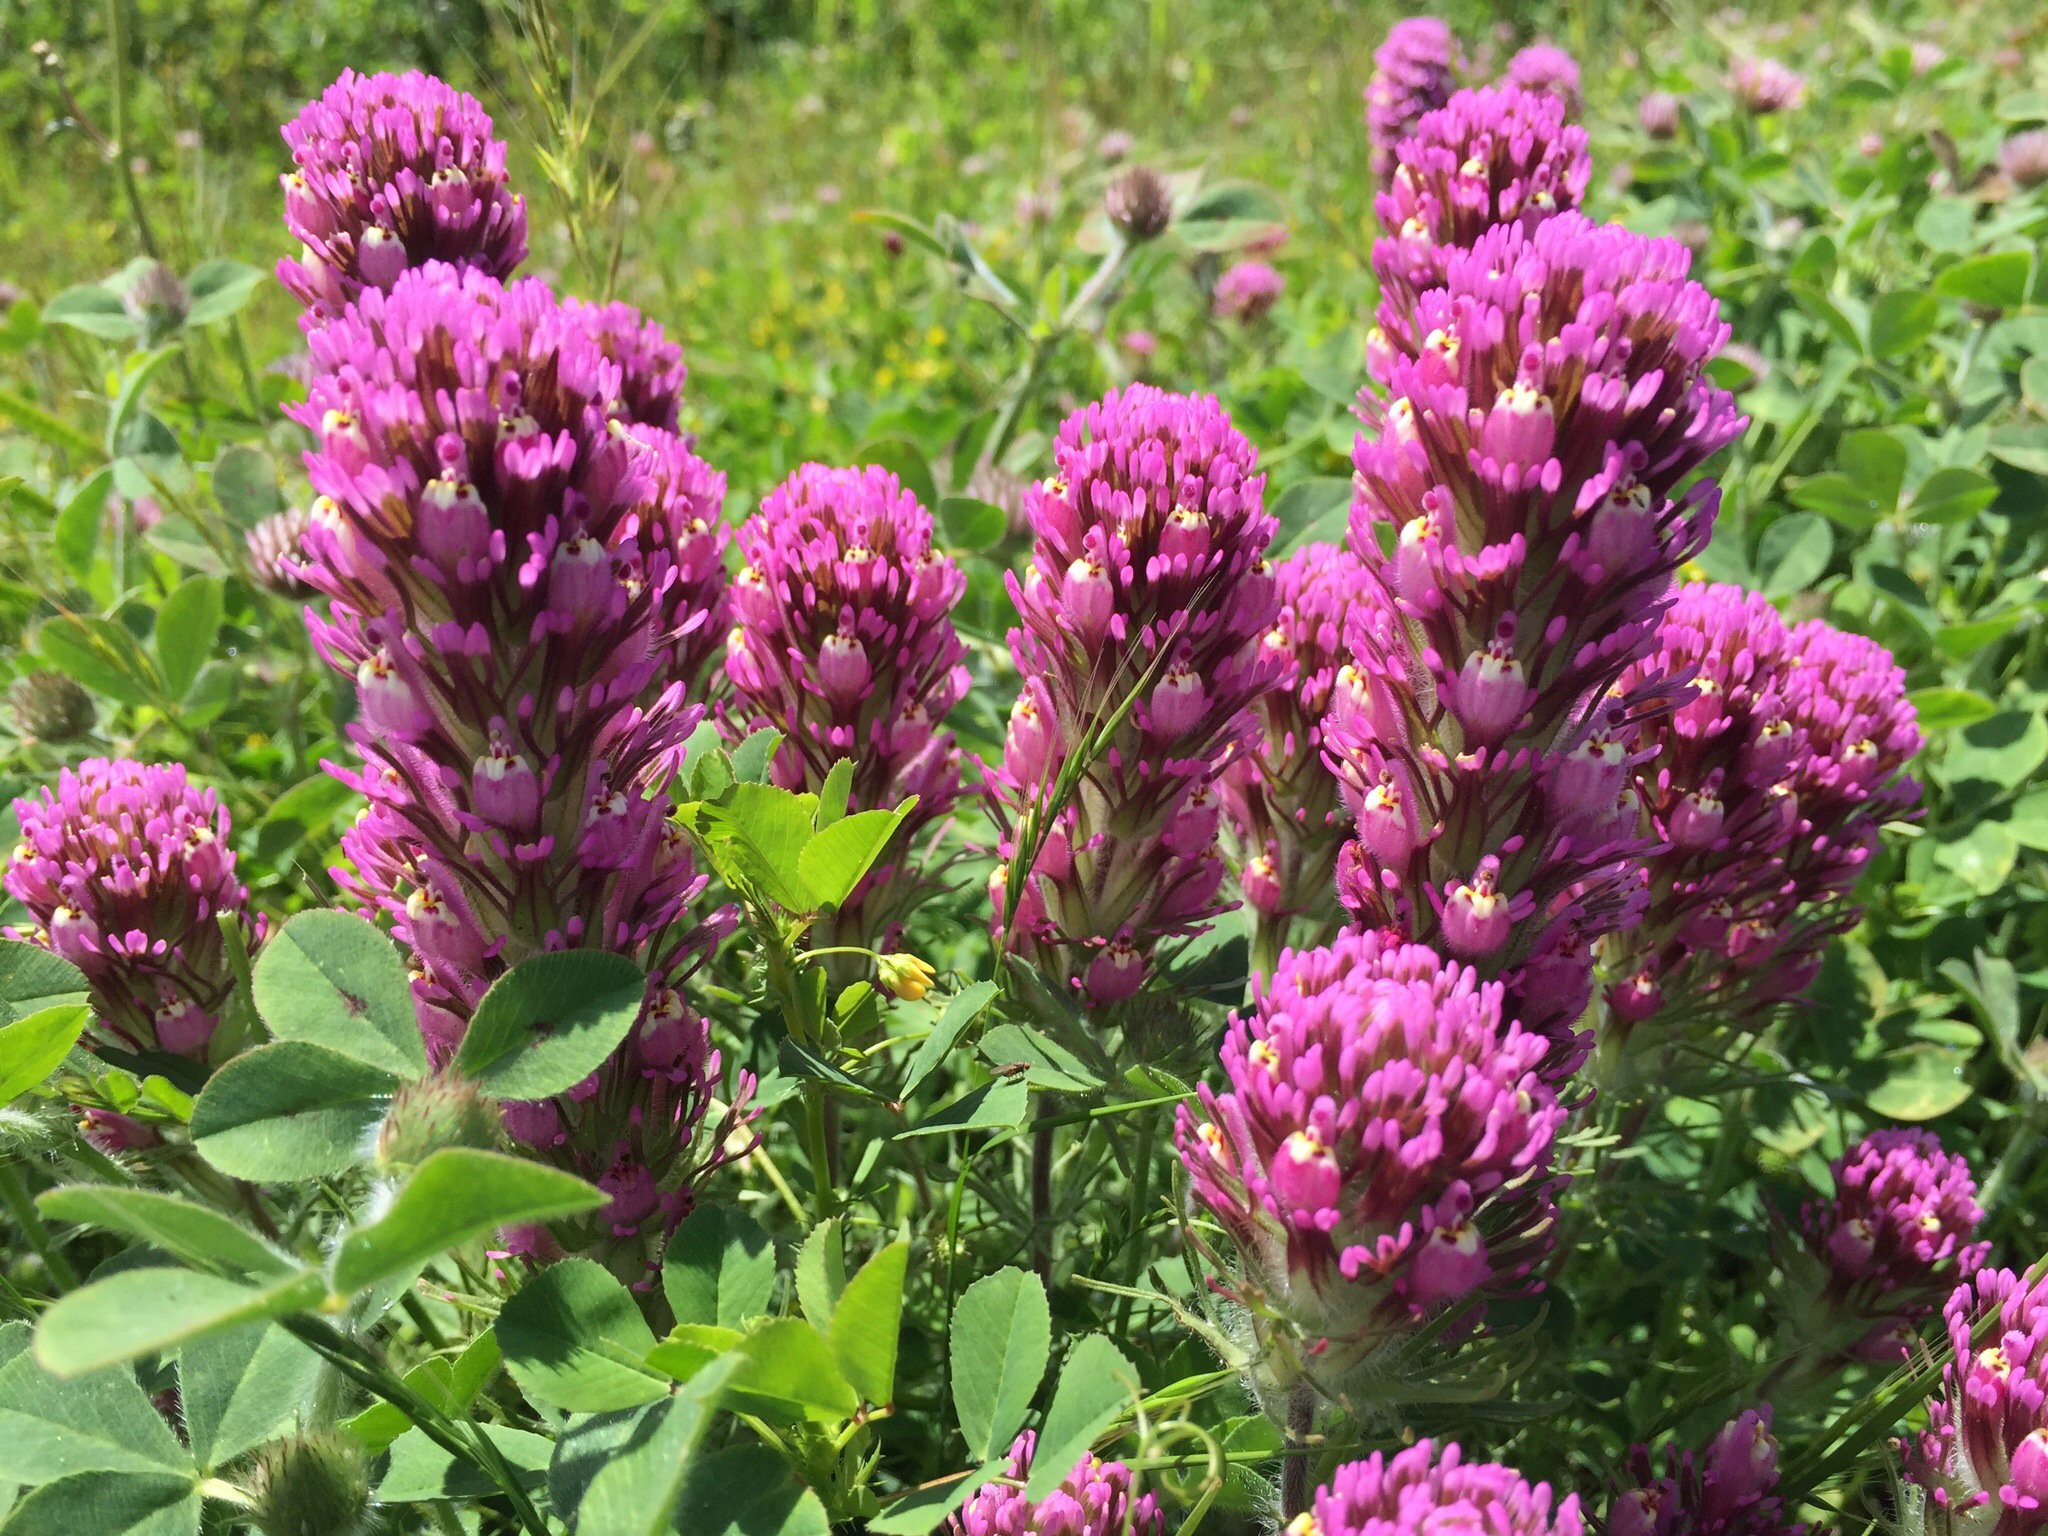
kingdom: Plantae
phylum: Tracheophyta
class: Magnoliopsida
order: Lamiales
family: Orobanchaceae
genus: Castilleja
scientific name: Castilleja exserta
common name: Purple owl-clover
